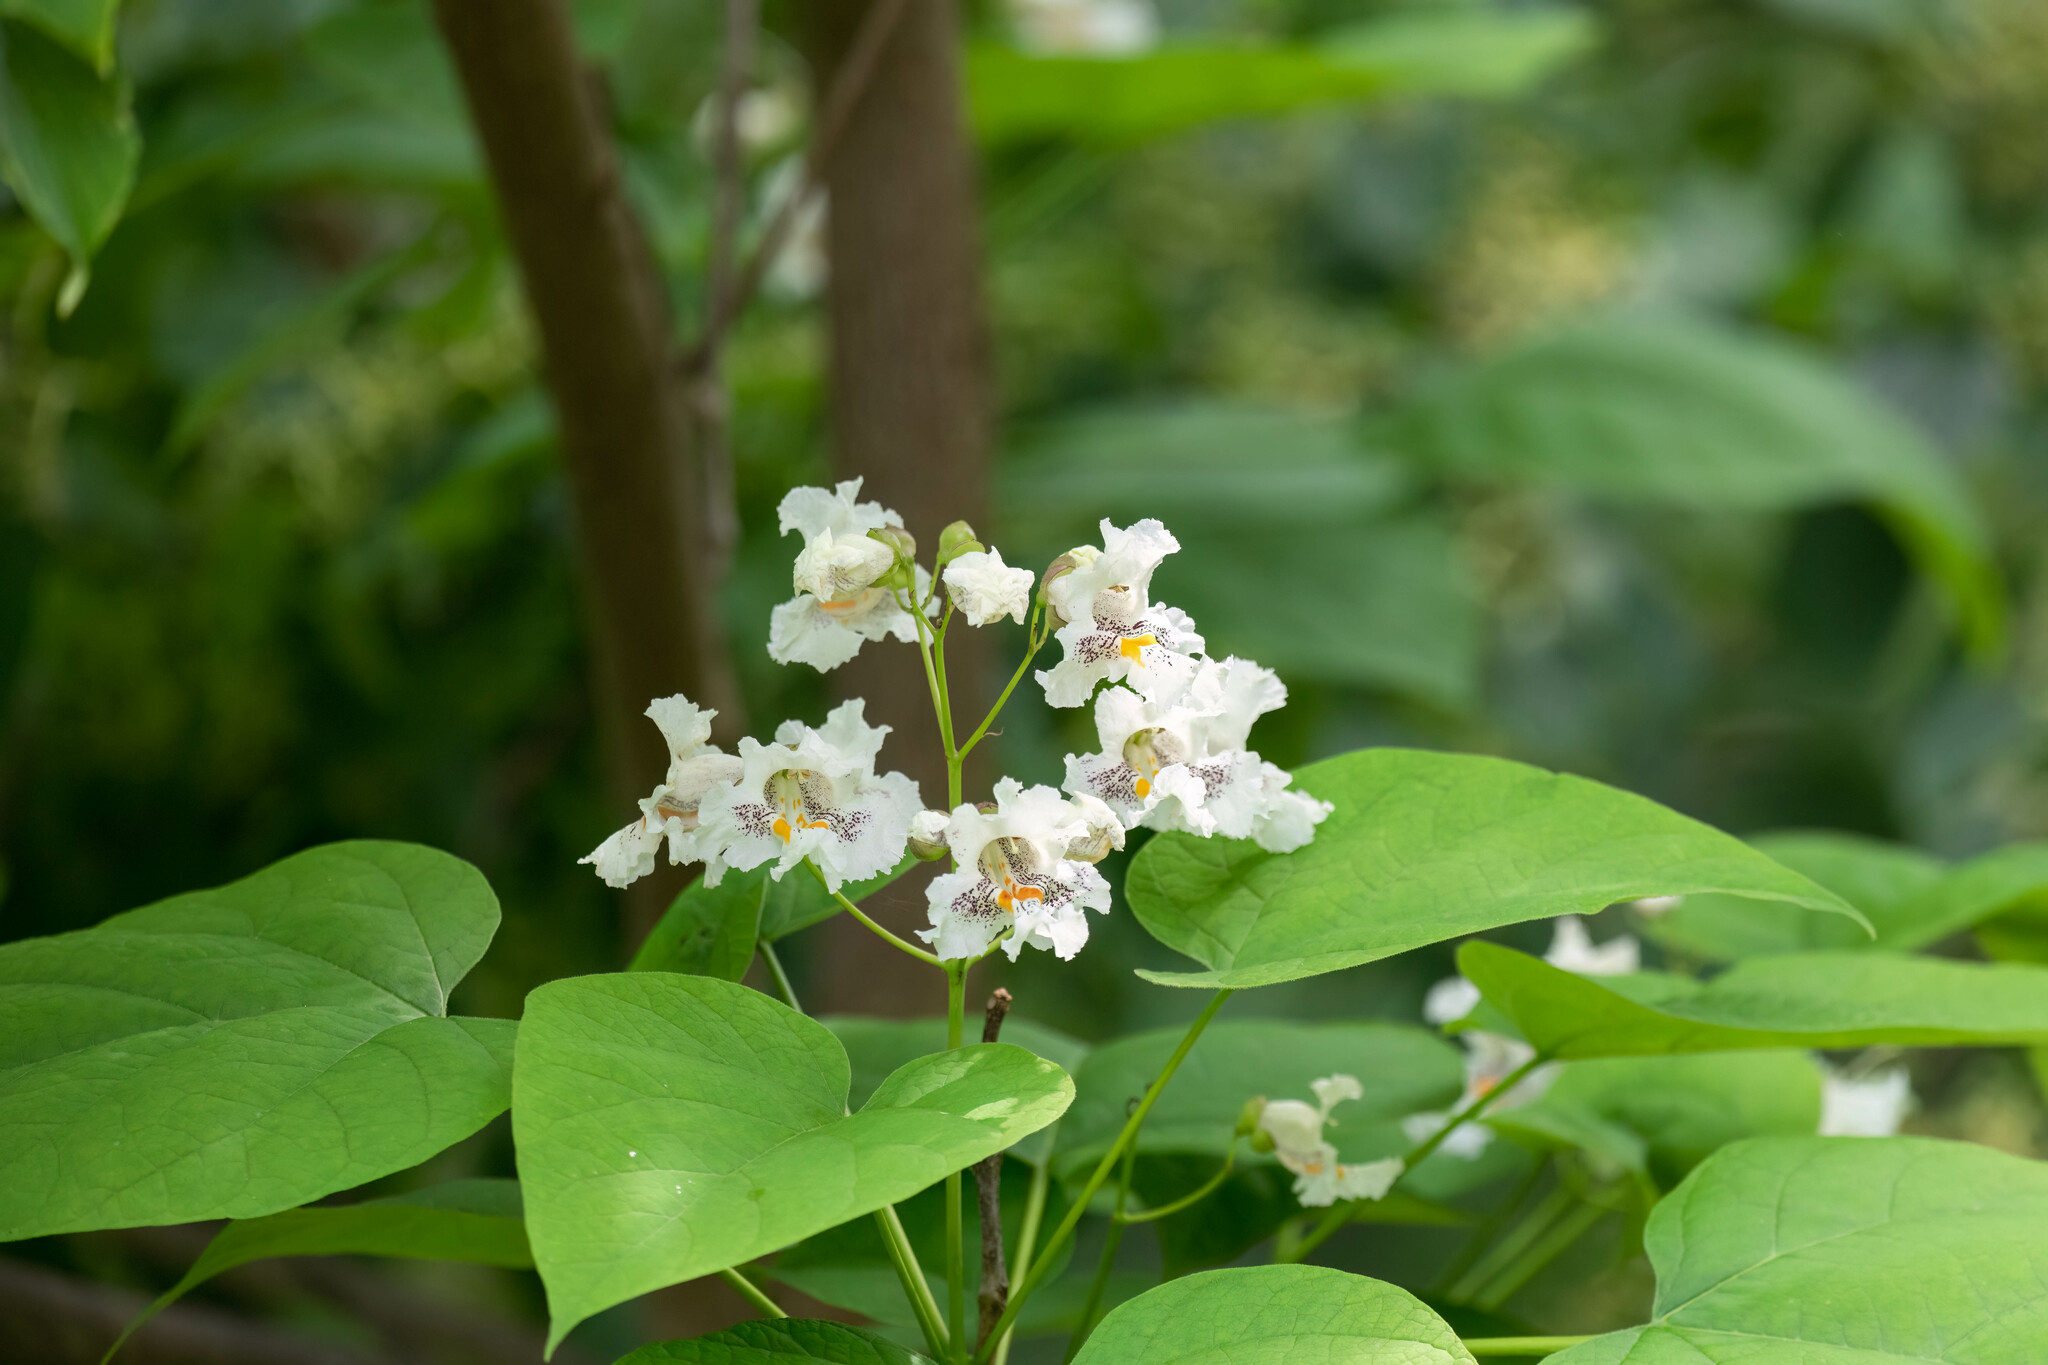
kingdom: Plantae
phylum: Tracheophyta
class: Magnoliopsida
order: Lamiales
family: Bignoniaceae
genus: Catalpa
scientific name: Catalpa speciosa
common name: Northern catalpa
